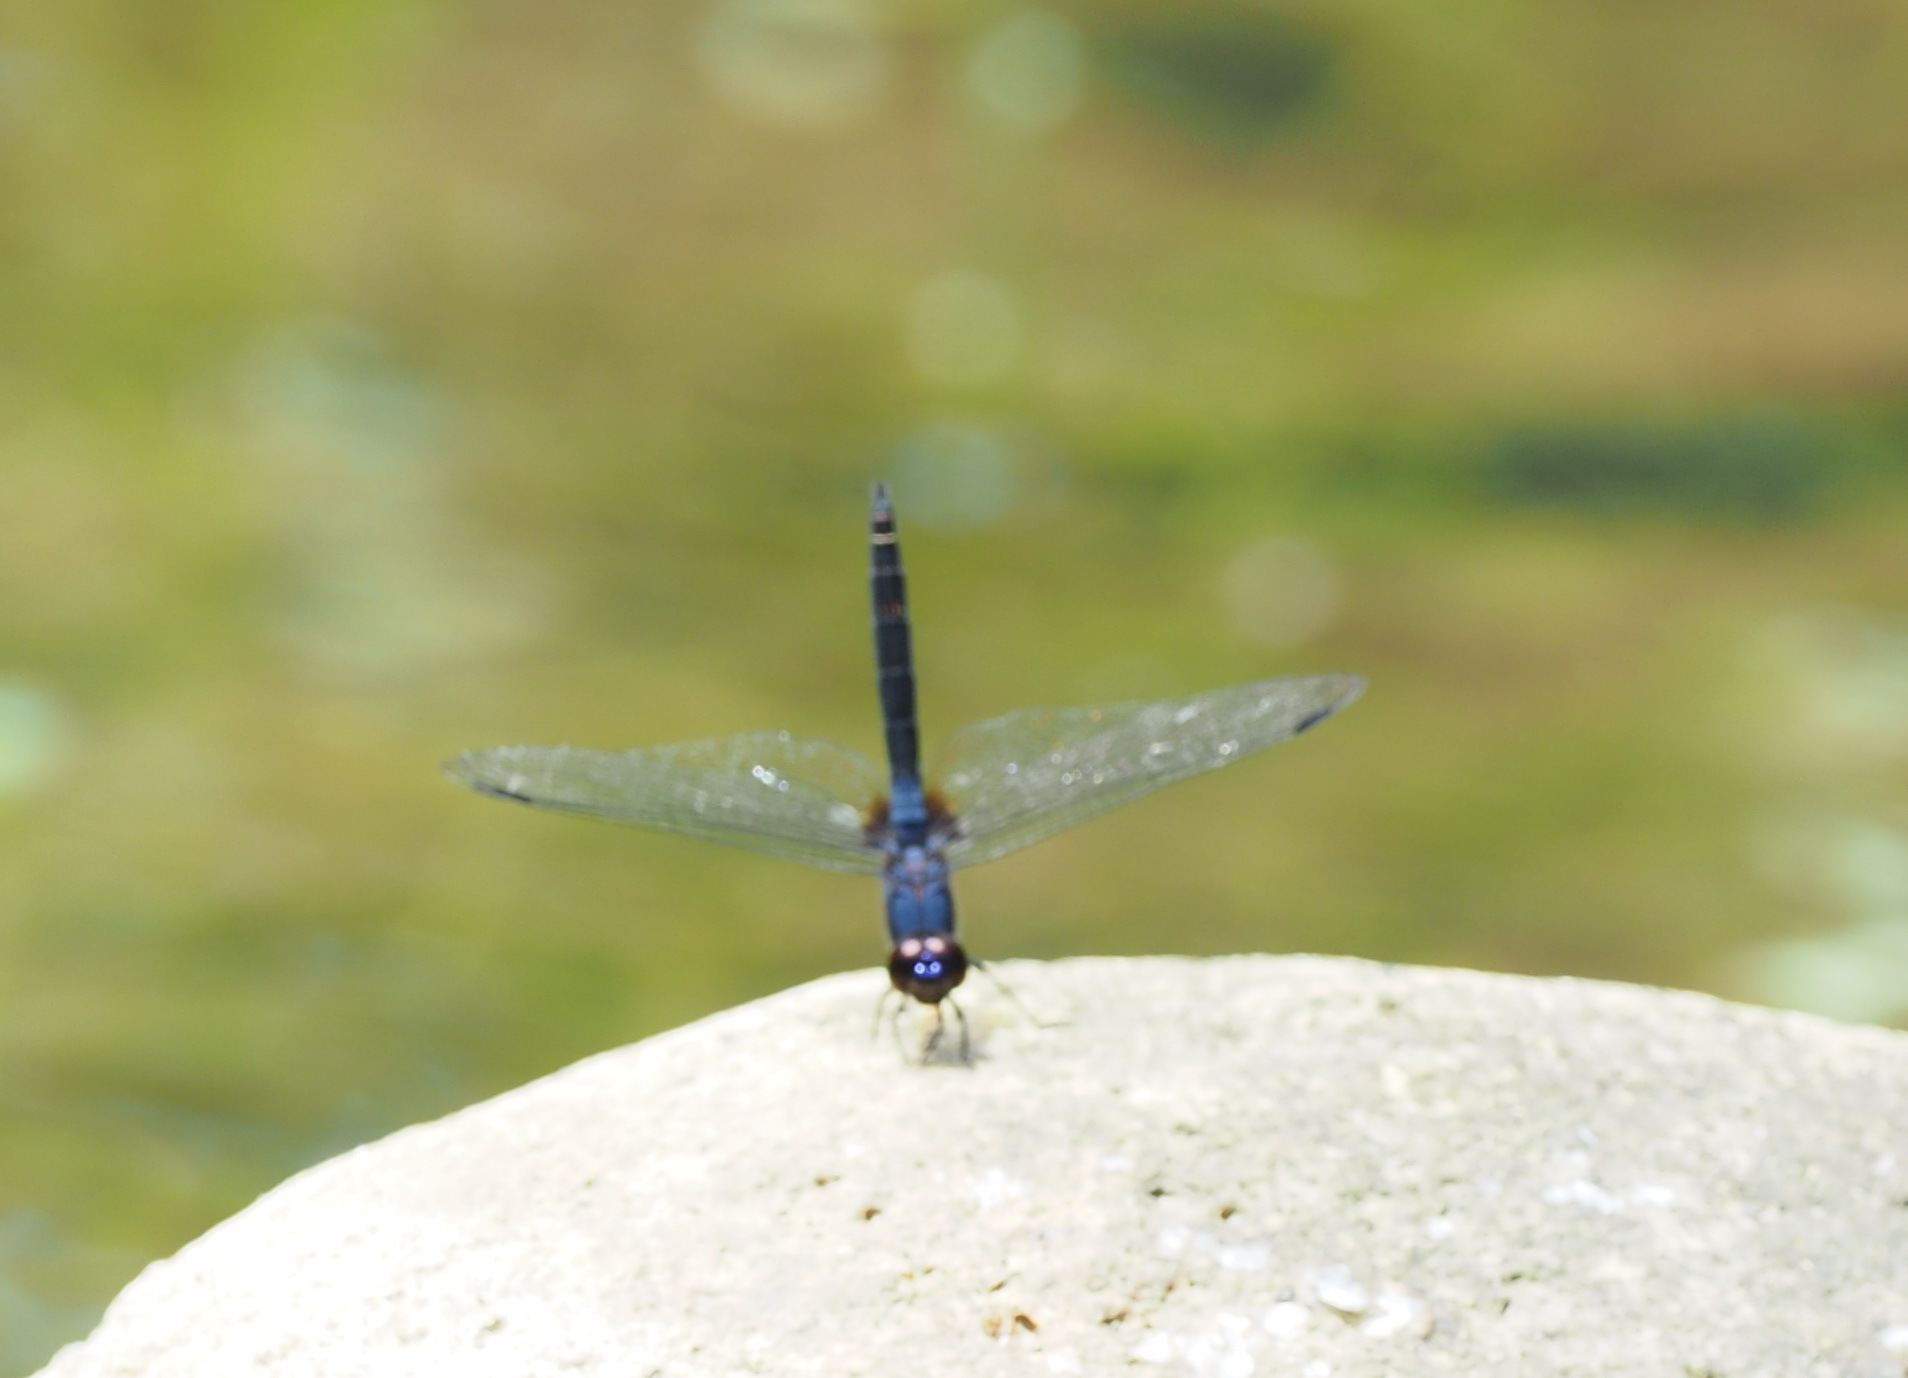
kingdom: Animalia
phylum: Arthropoda
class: Insecta
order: Odonata
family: Libellulidae
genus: Trithemis
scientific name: Trithemis festiva
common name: Indigo dropwing
